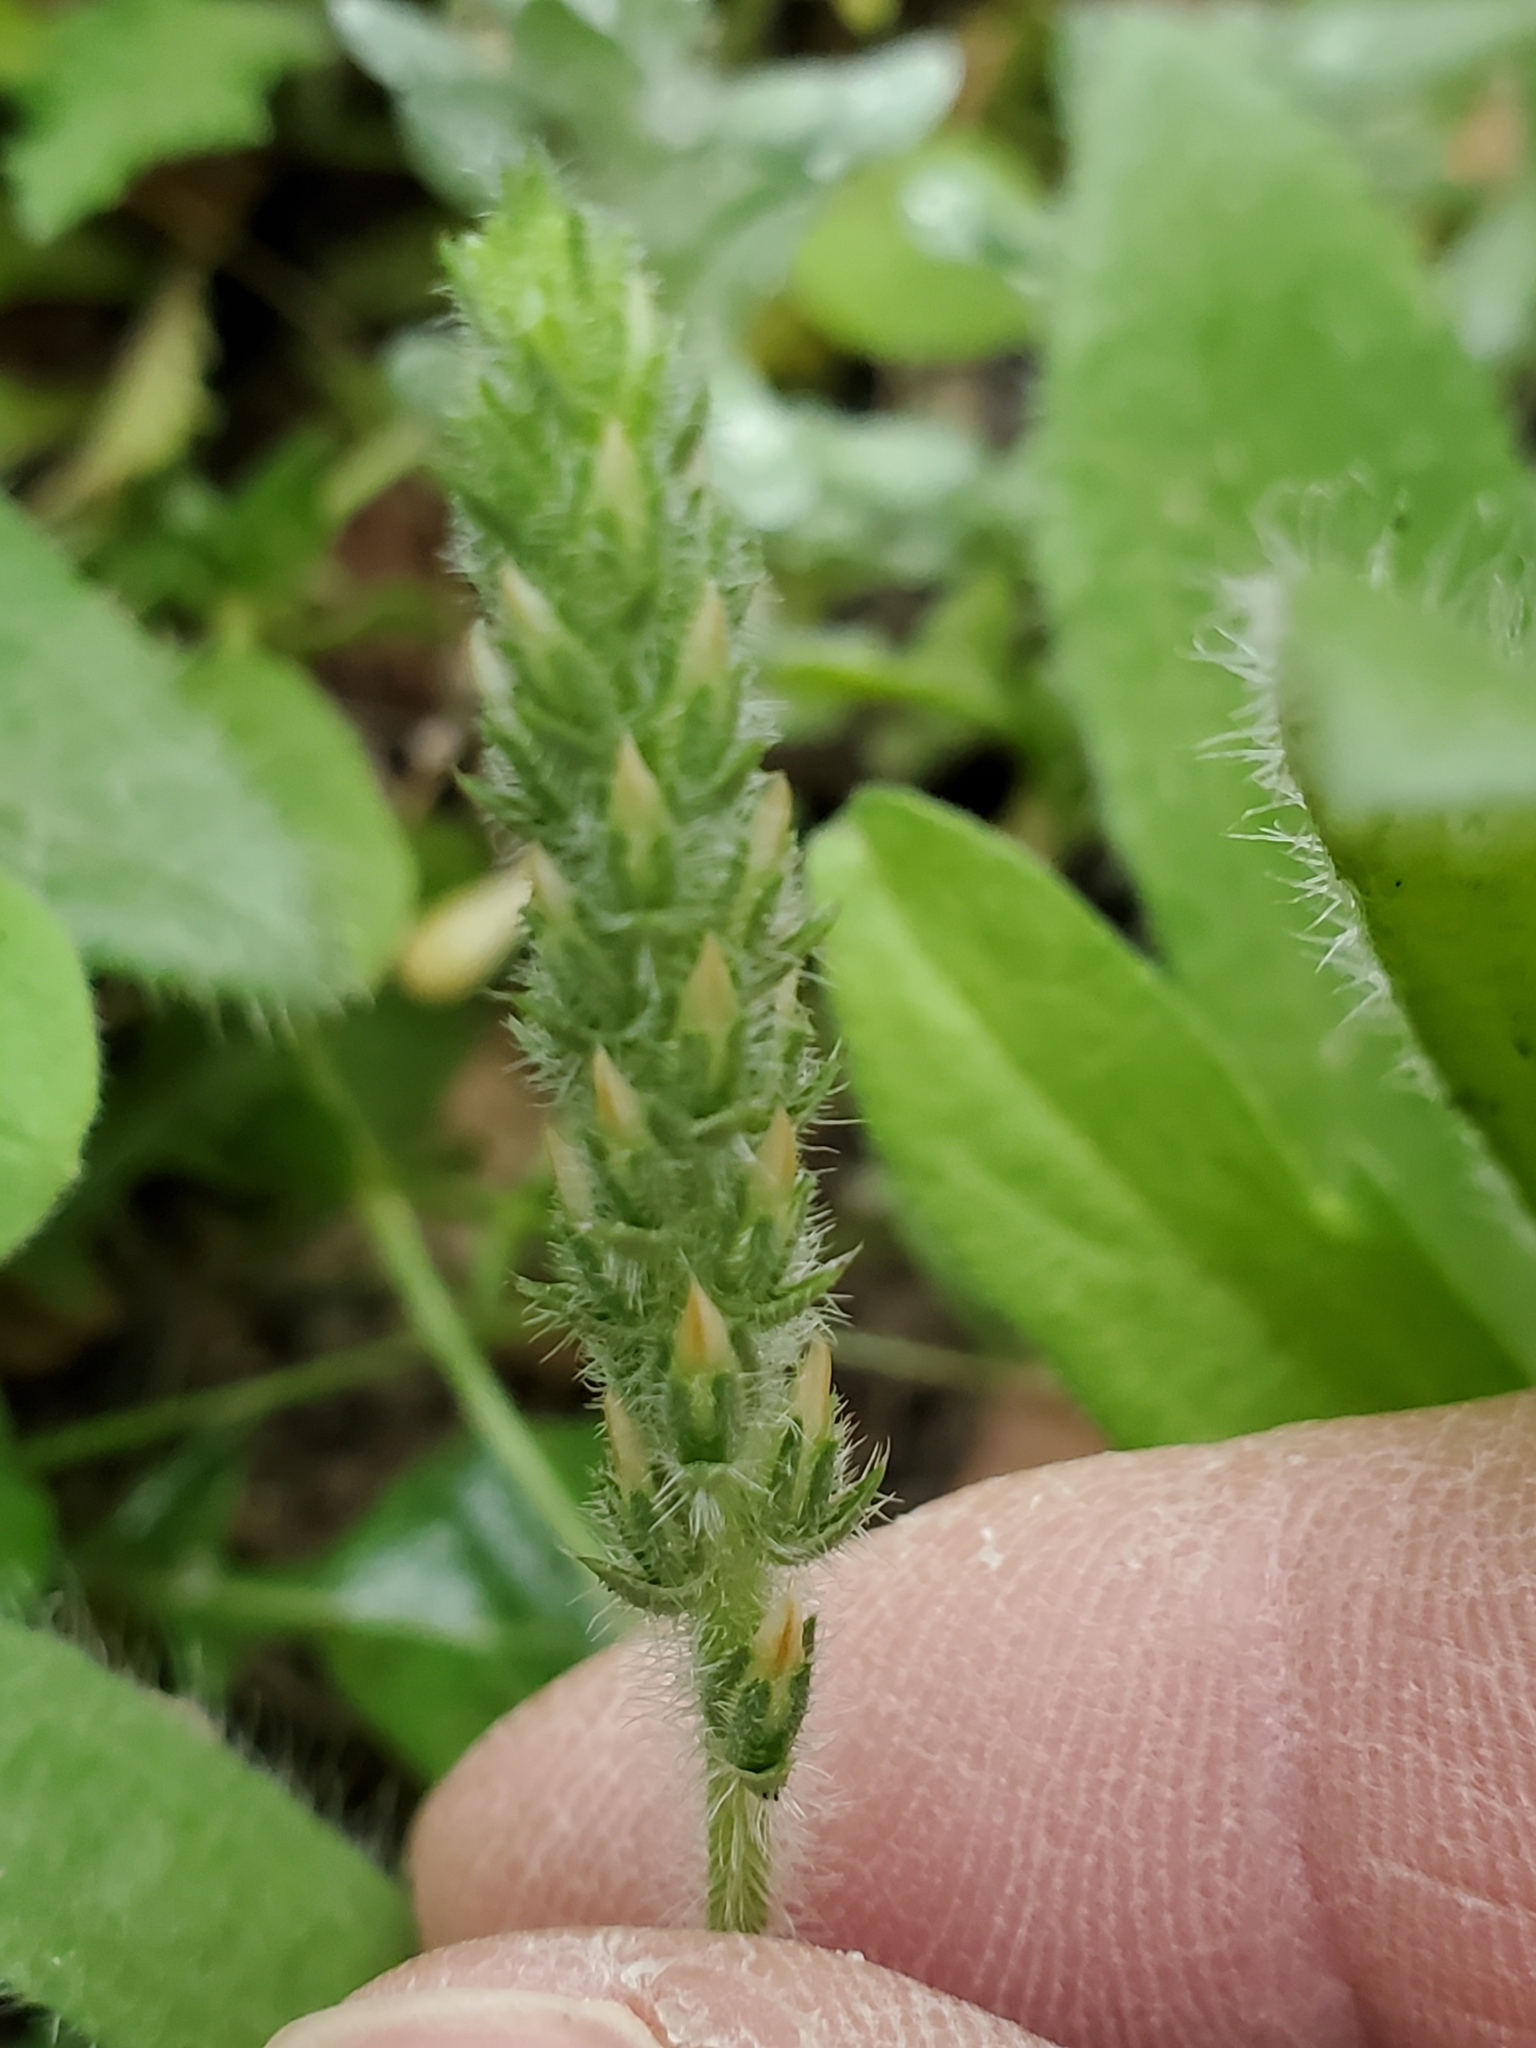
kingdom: Plantae
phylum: Tracheophyta
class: Magnoliopsida
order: Lamiales
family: Plantaginaceae
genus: Plantago
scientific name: Plantago rhodosperma
